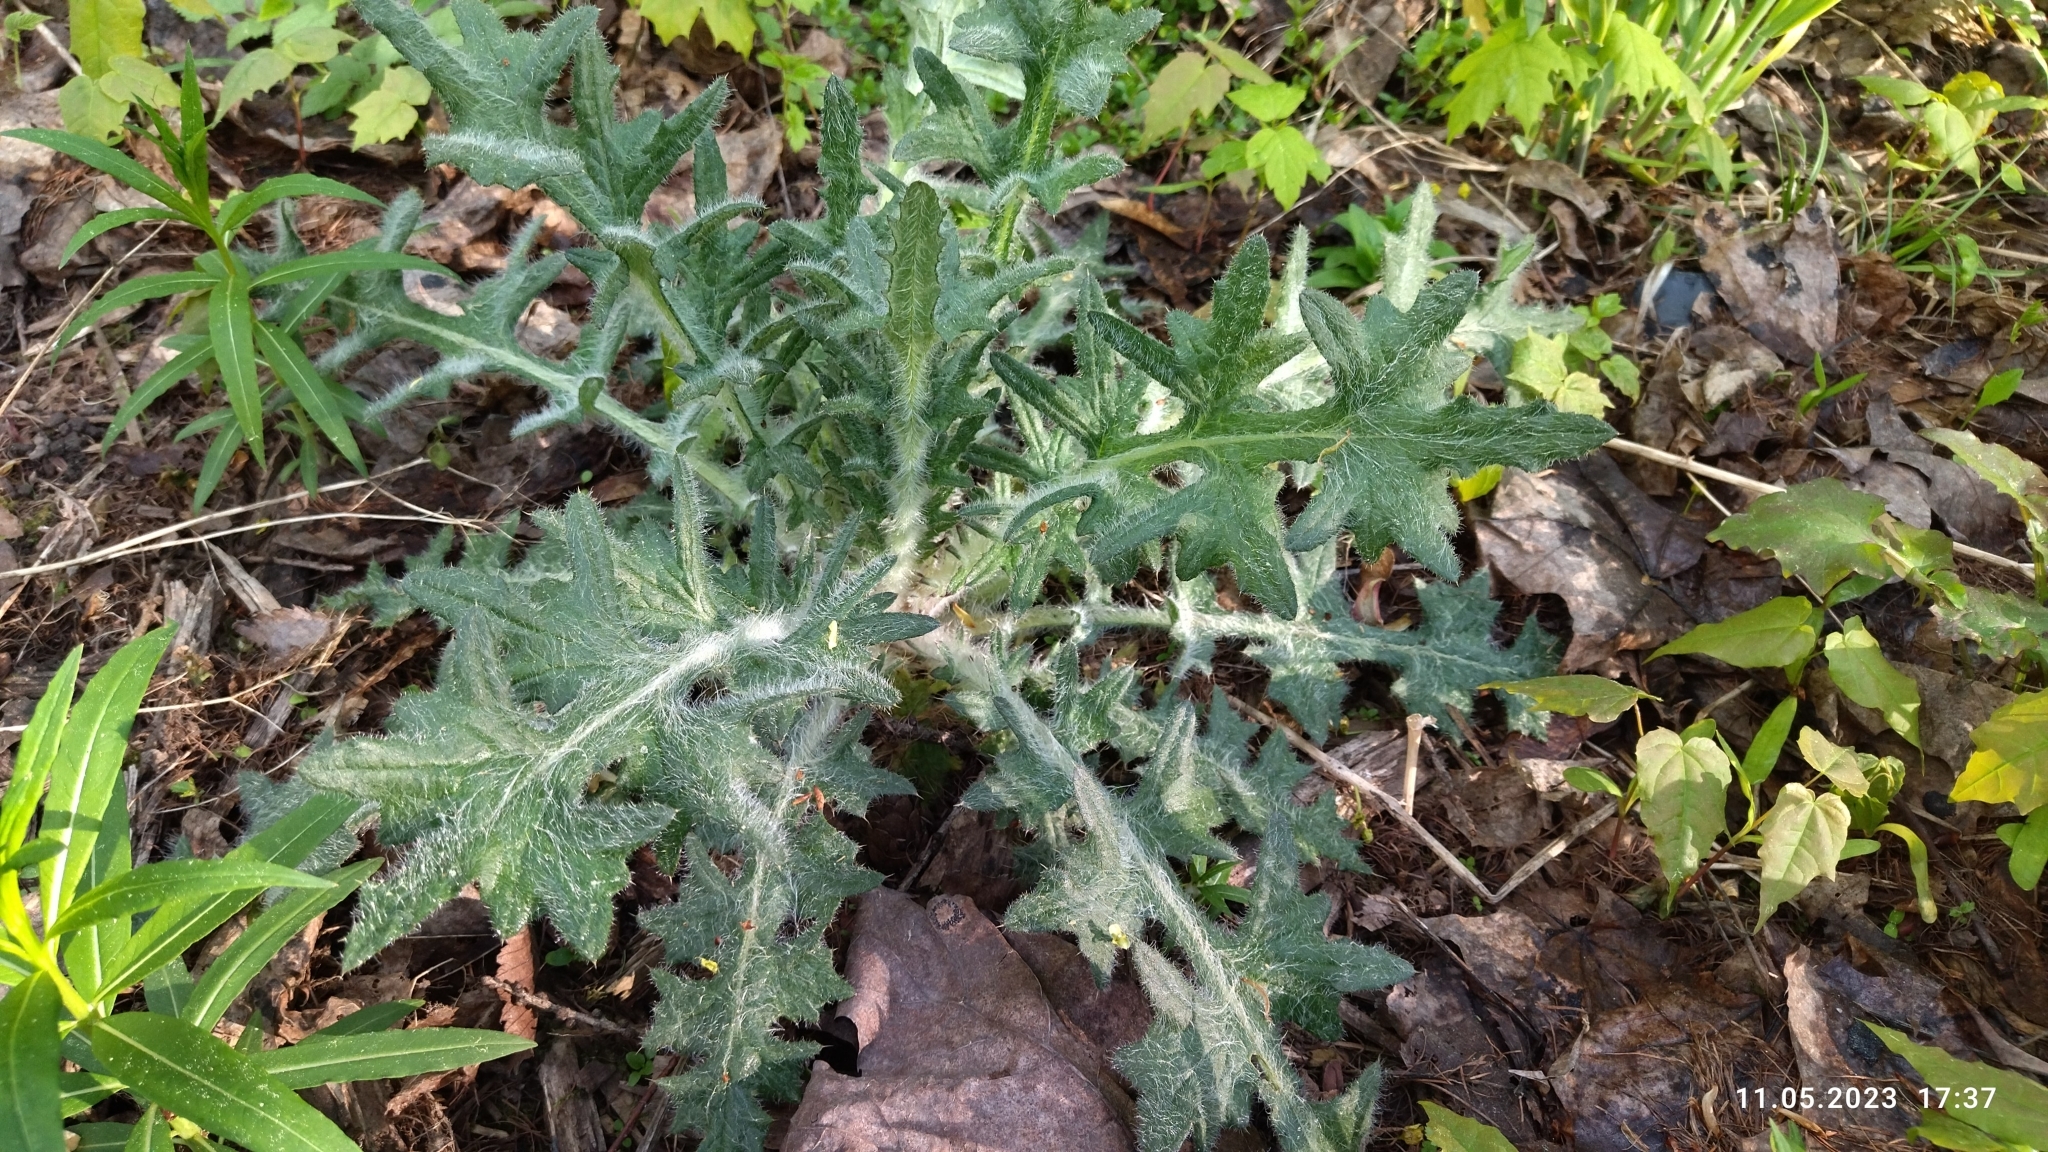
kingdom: Plantae
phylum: Tracheophyta
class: Magnoliopsida
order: Asterales
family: Asteraceae
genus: Cirsium
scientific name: Cirsium vulgare
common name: Bull thistle
